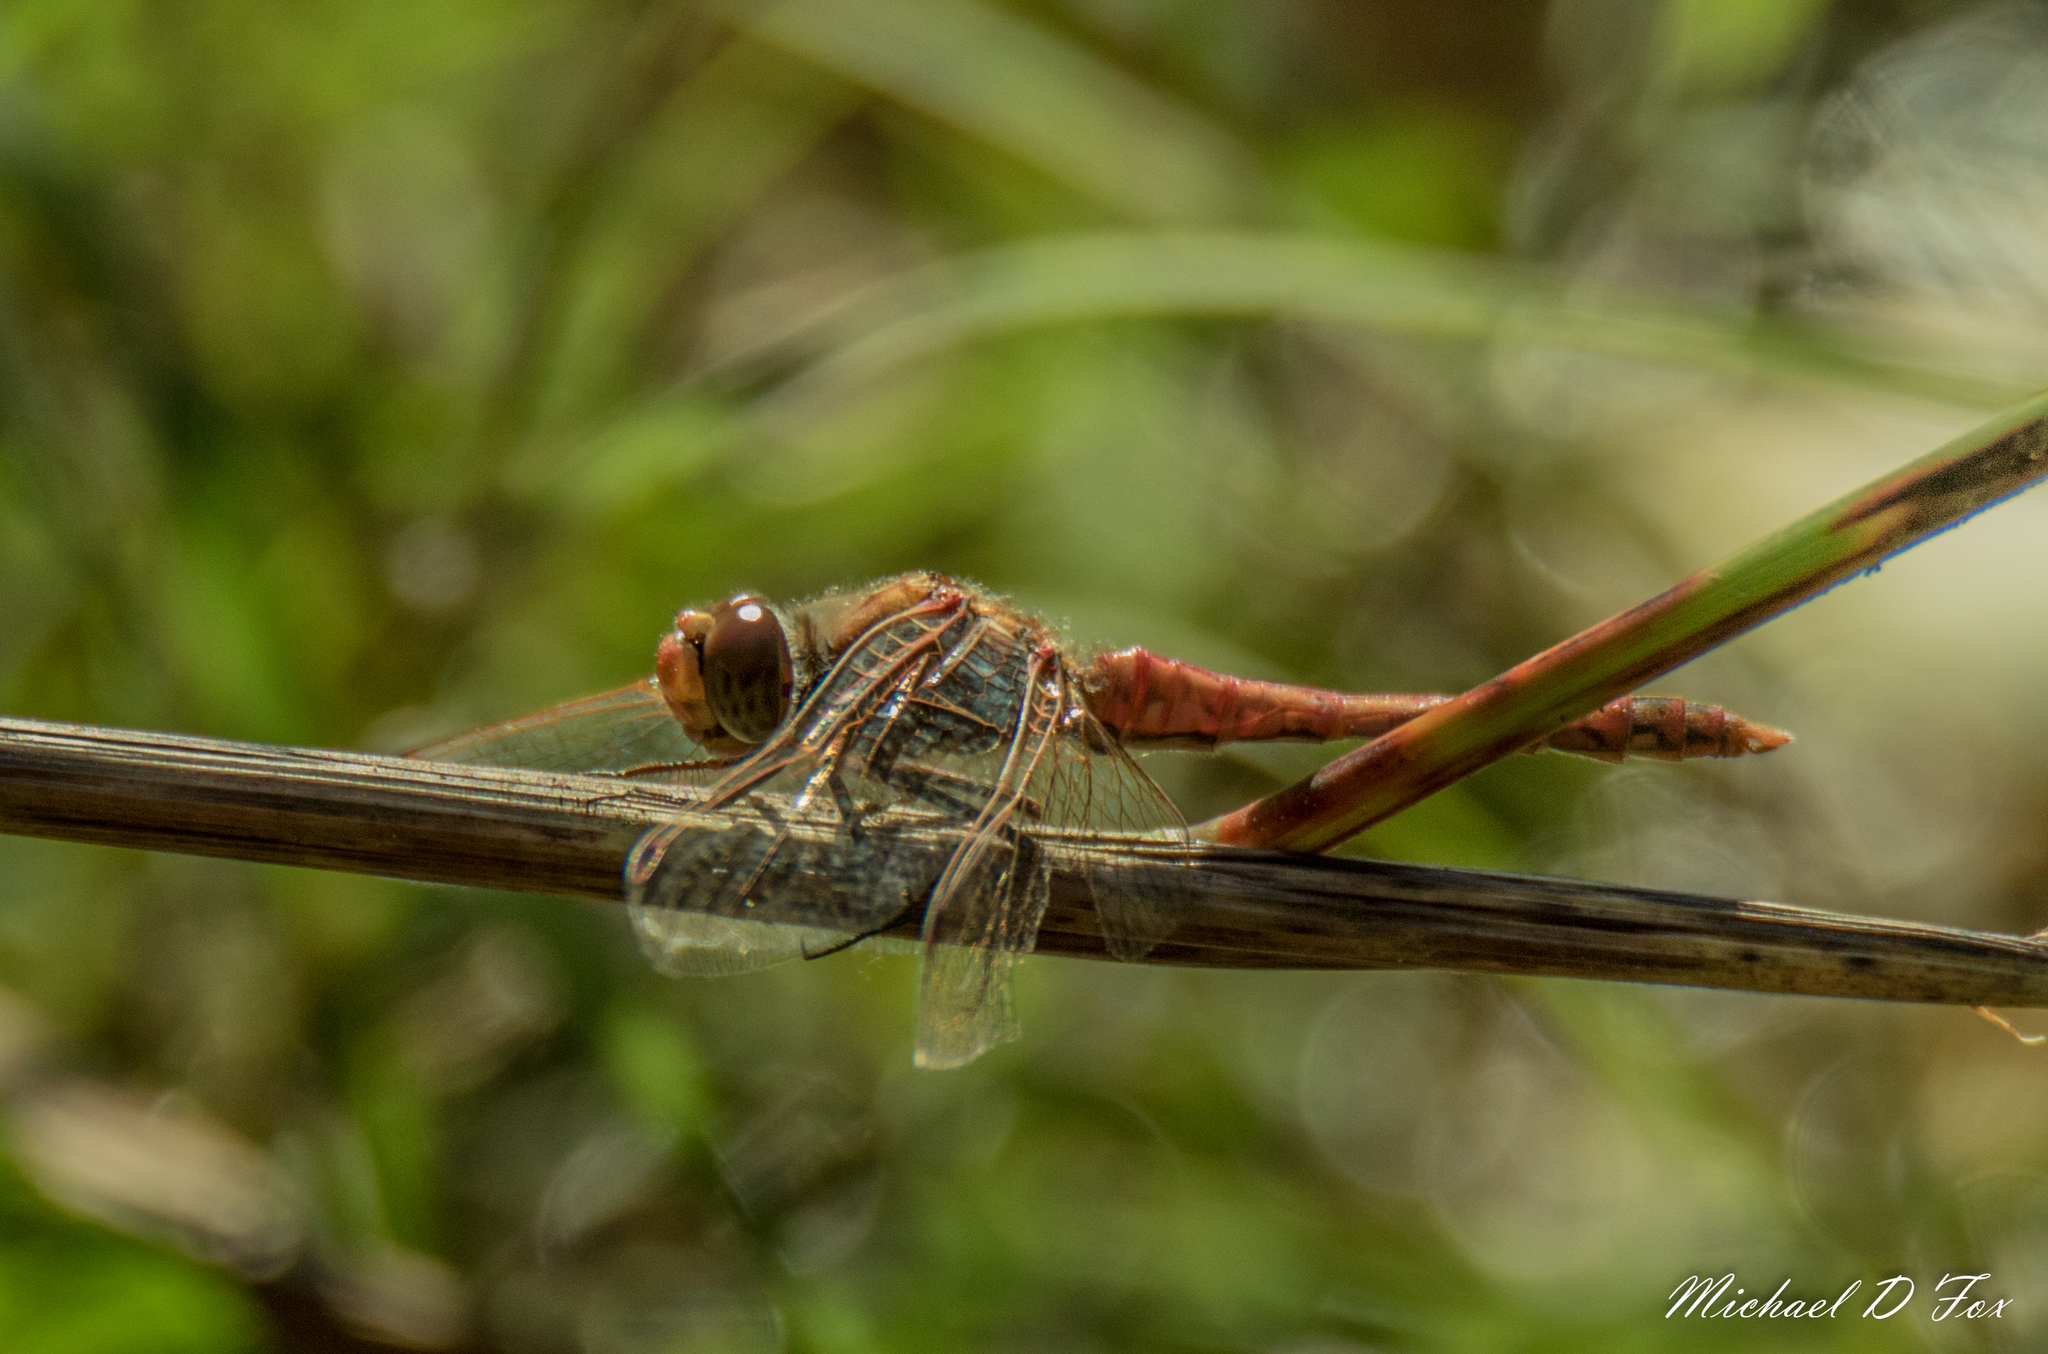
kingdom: Animalia
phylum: Arthropoda
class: Insecta
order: Odonata
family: Libellulidae
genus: Sympetrum
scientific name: Sympetrum corruptum
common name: Variegated meadowhawk
